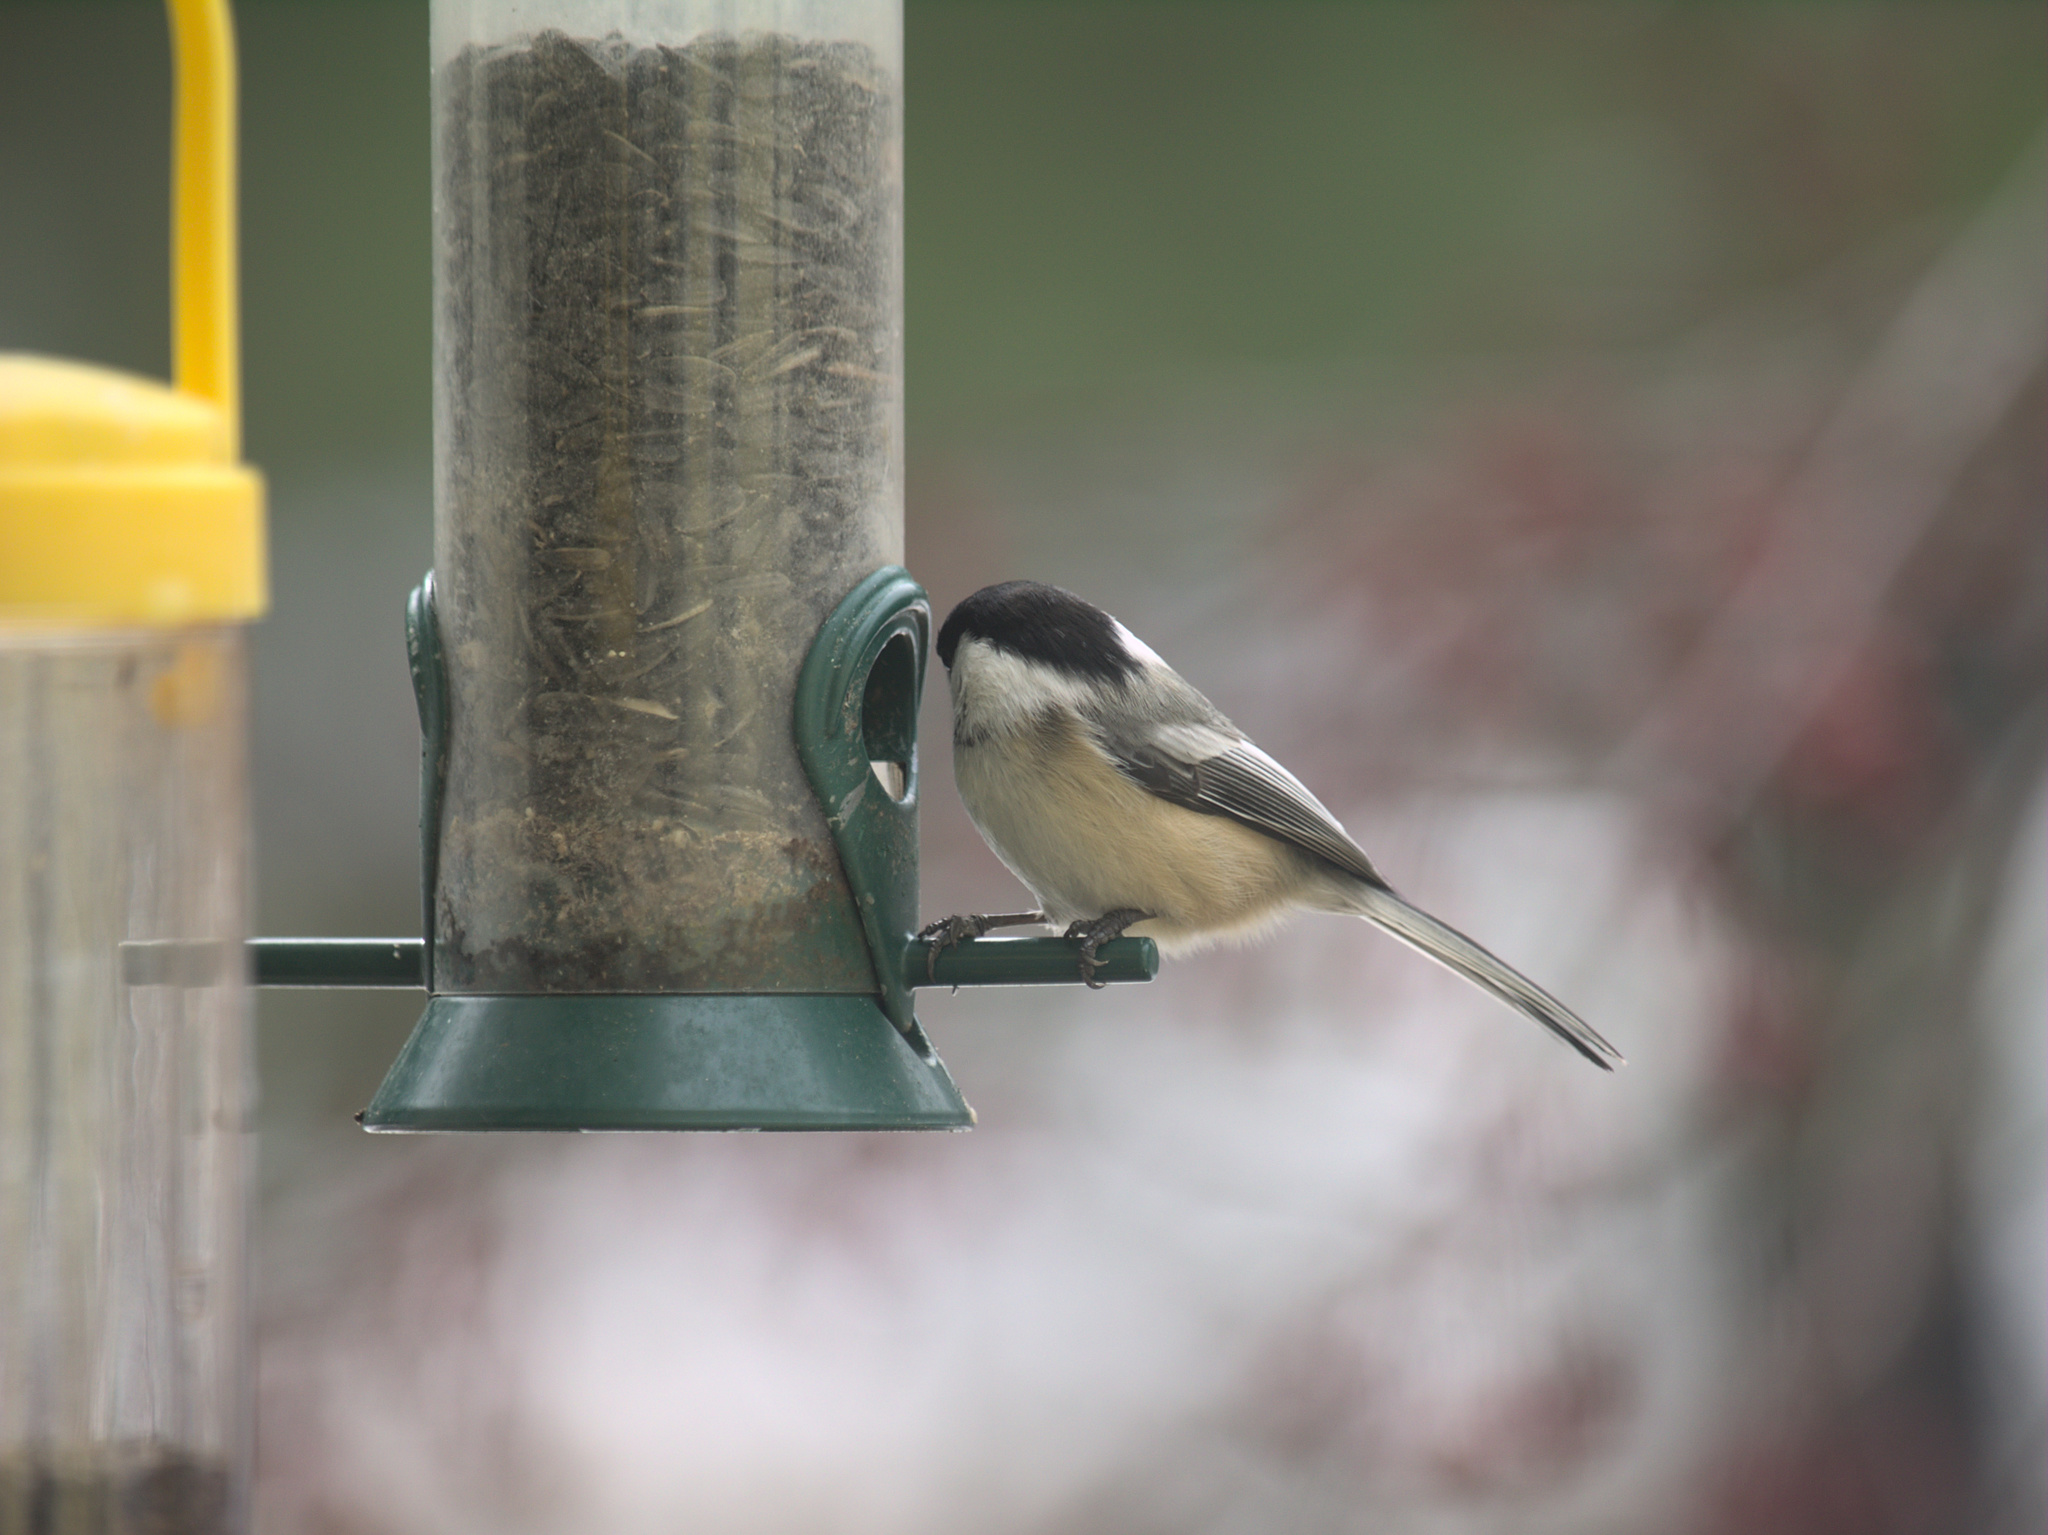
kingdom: Animalia
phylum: Chordata
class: Aves
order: Passeriformes
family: Paridae
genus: Poecile
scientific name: Poecile atricapillus
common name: Black-capped chickadee
